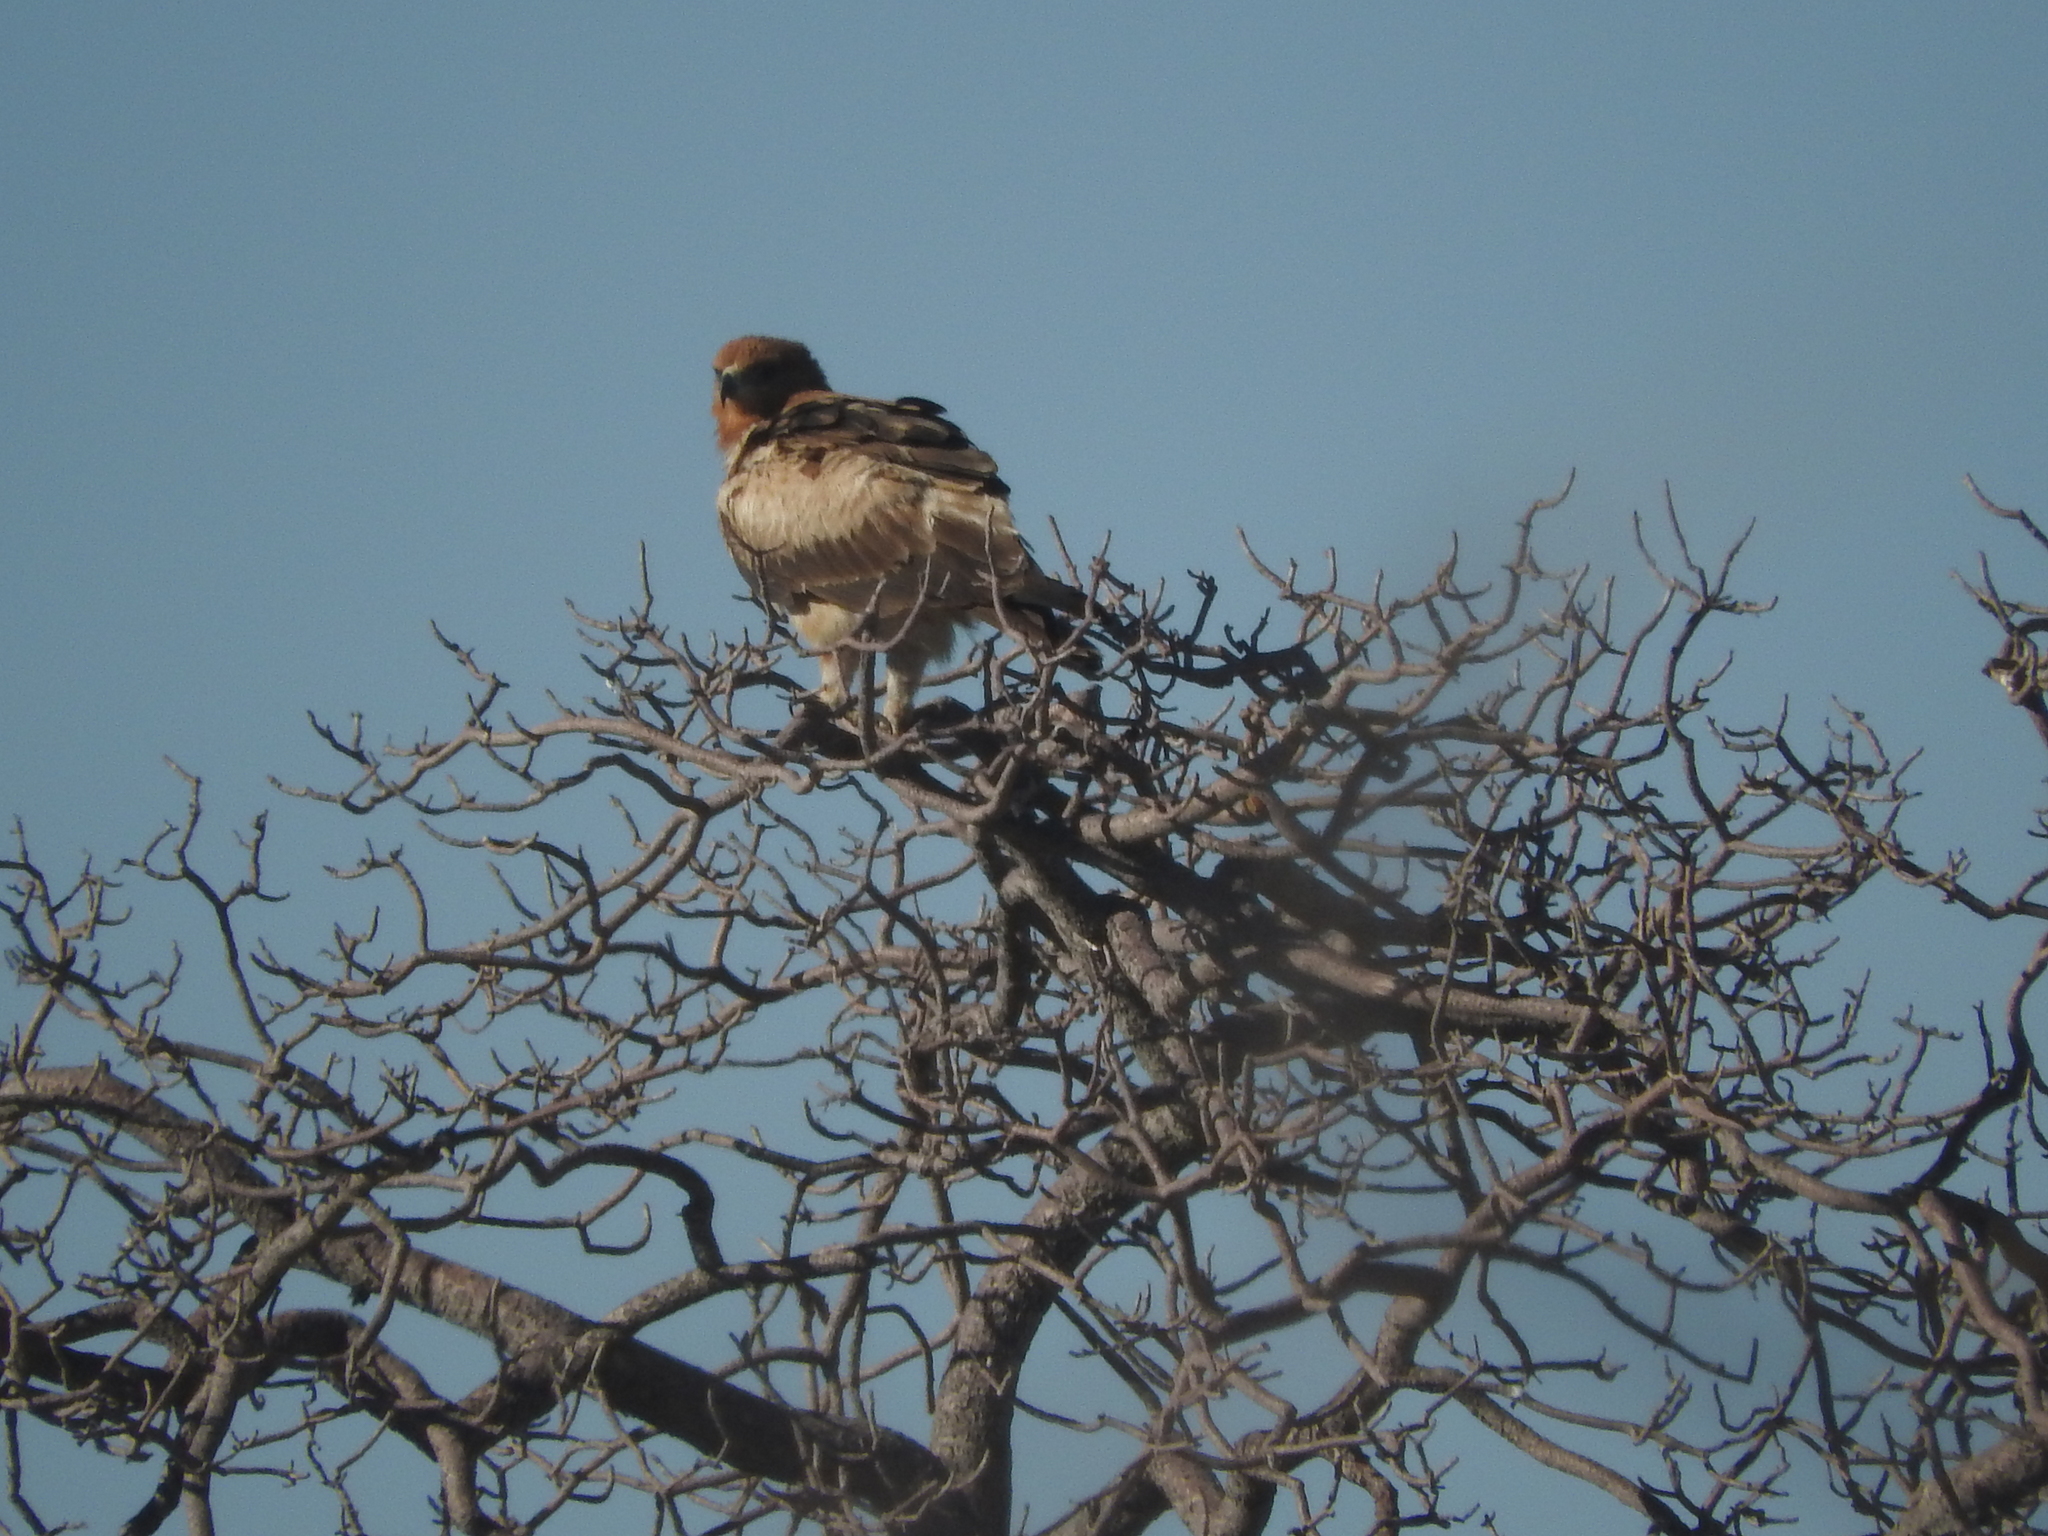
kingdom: Animalia
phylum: Chordata
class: Aves
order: Accipitriformes
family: Accipitridae
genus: Aquila
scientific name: Aquila rapax
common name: Tawny eagle
